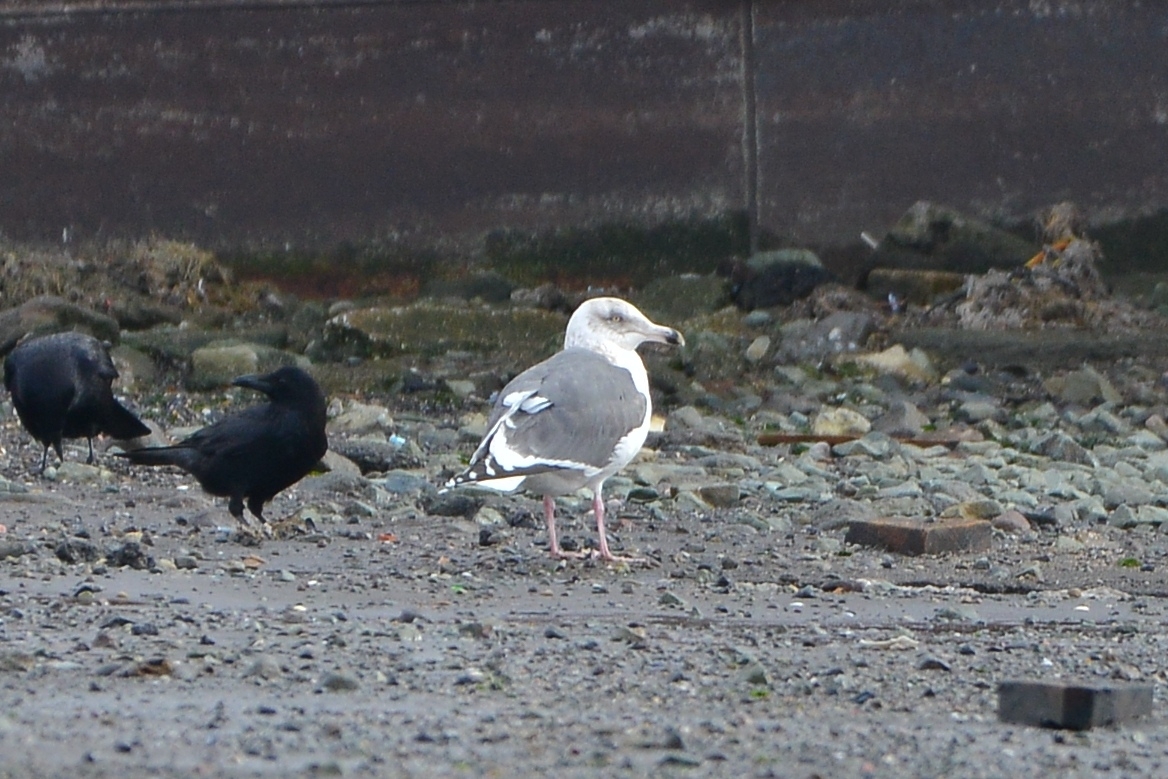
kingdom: Animalia
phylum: Chordata
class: Aves
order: Charadriiformes
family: Laridae
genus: Larus
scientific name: Larus schistisagus
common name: Slaty-backed gull
